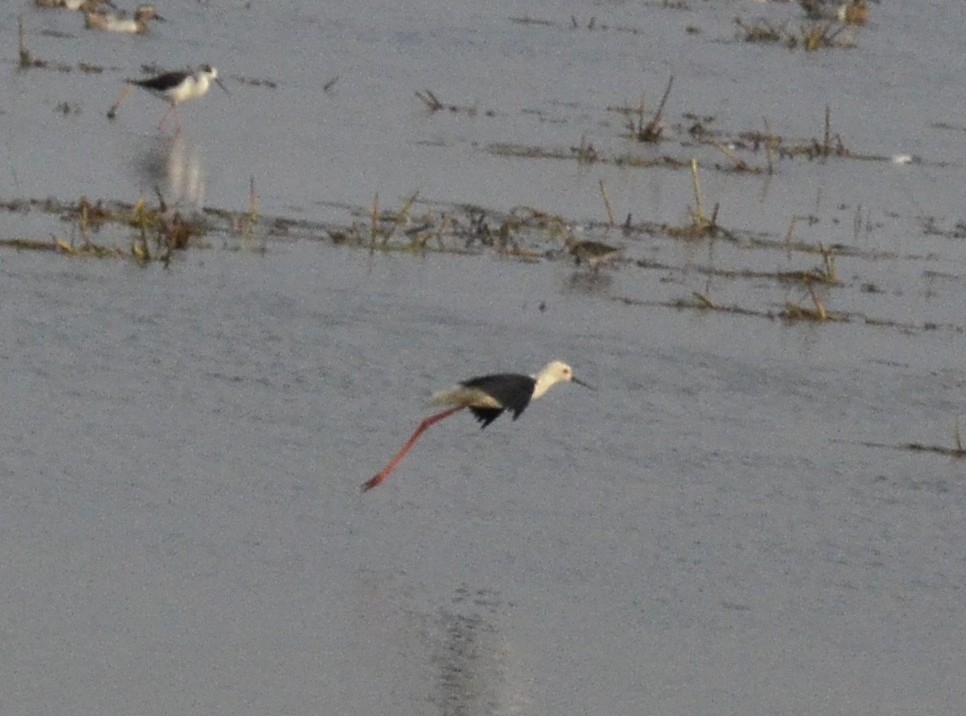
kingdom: Animalia
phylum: Chordata
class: Aves
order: Charadriiformes
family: Recurvirostridae
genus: Himantopus
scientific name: Himantopus himantopus
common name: Black-winged stilt
